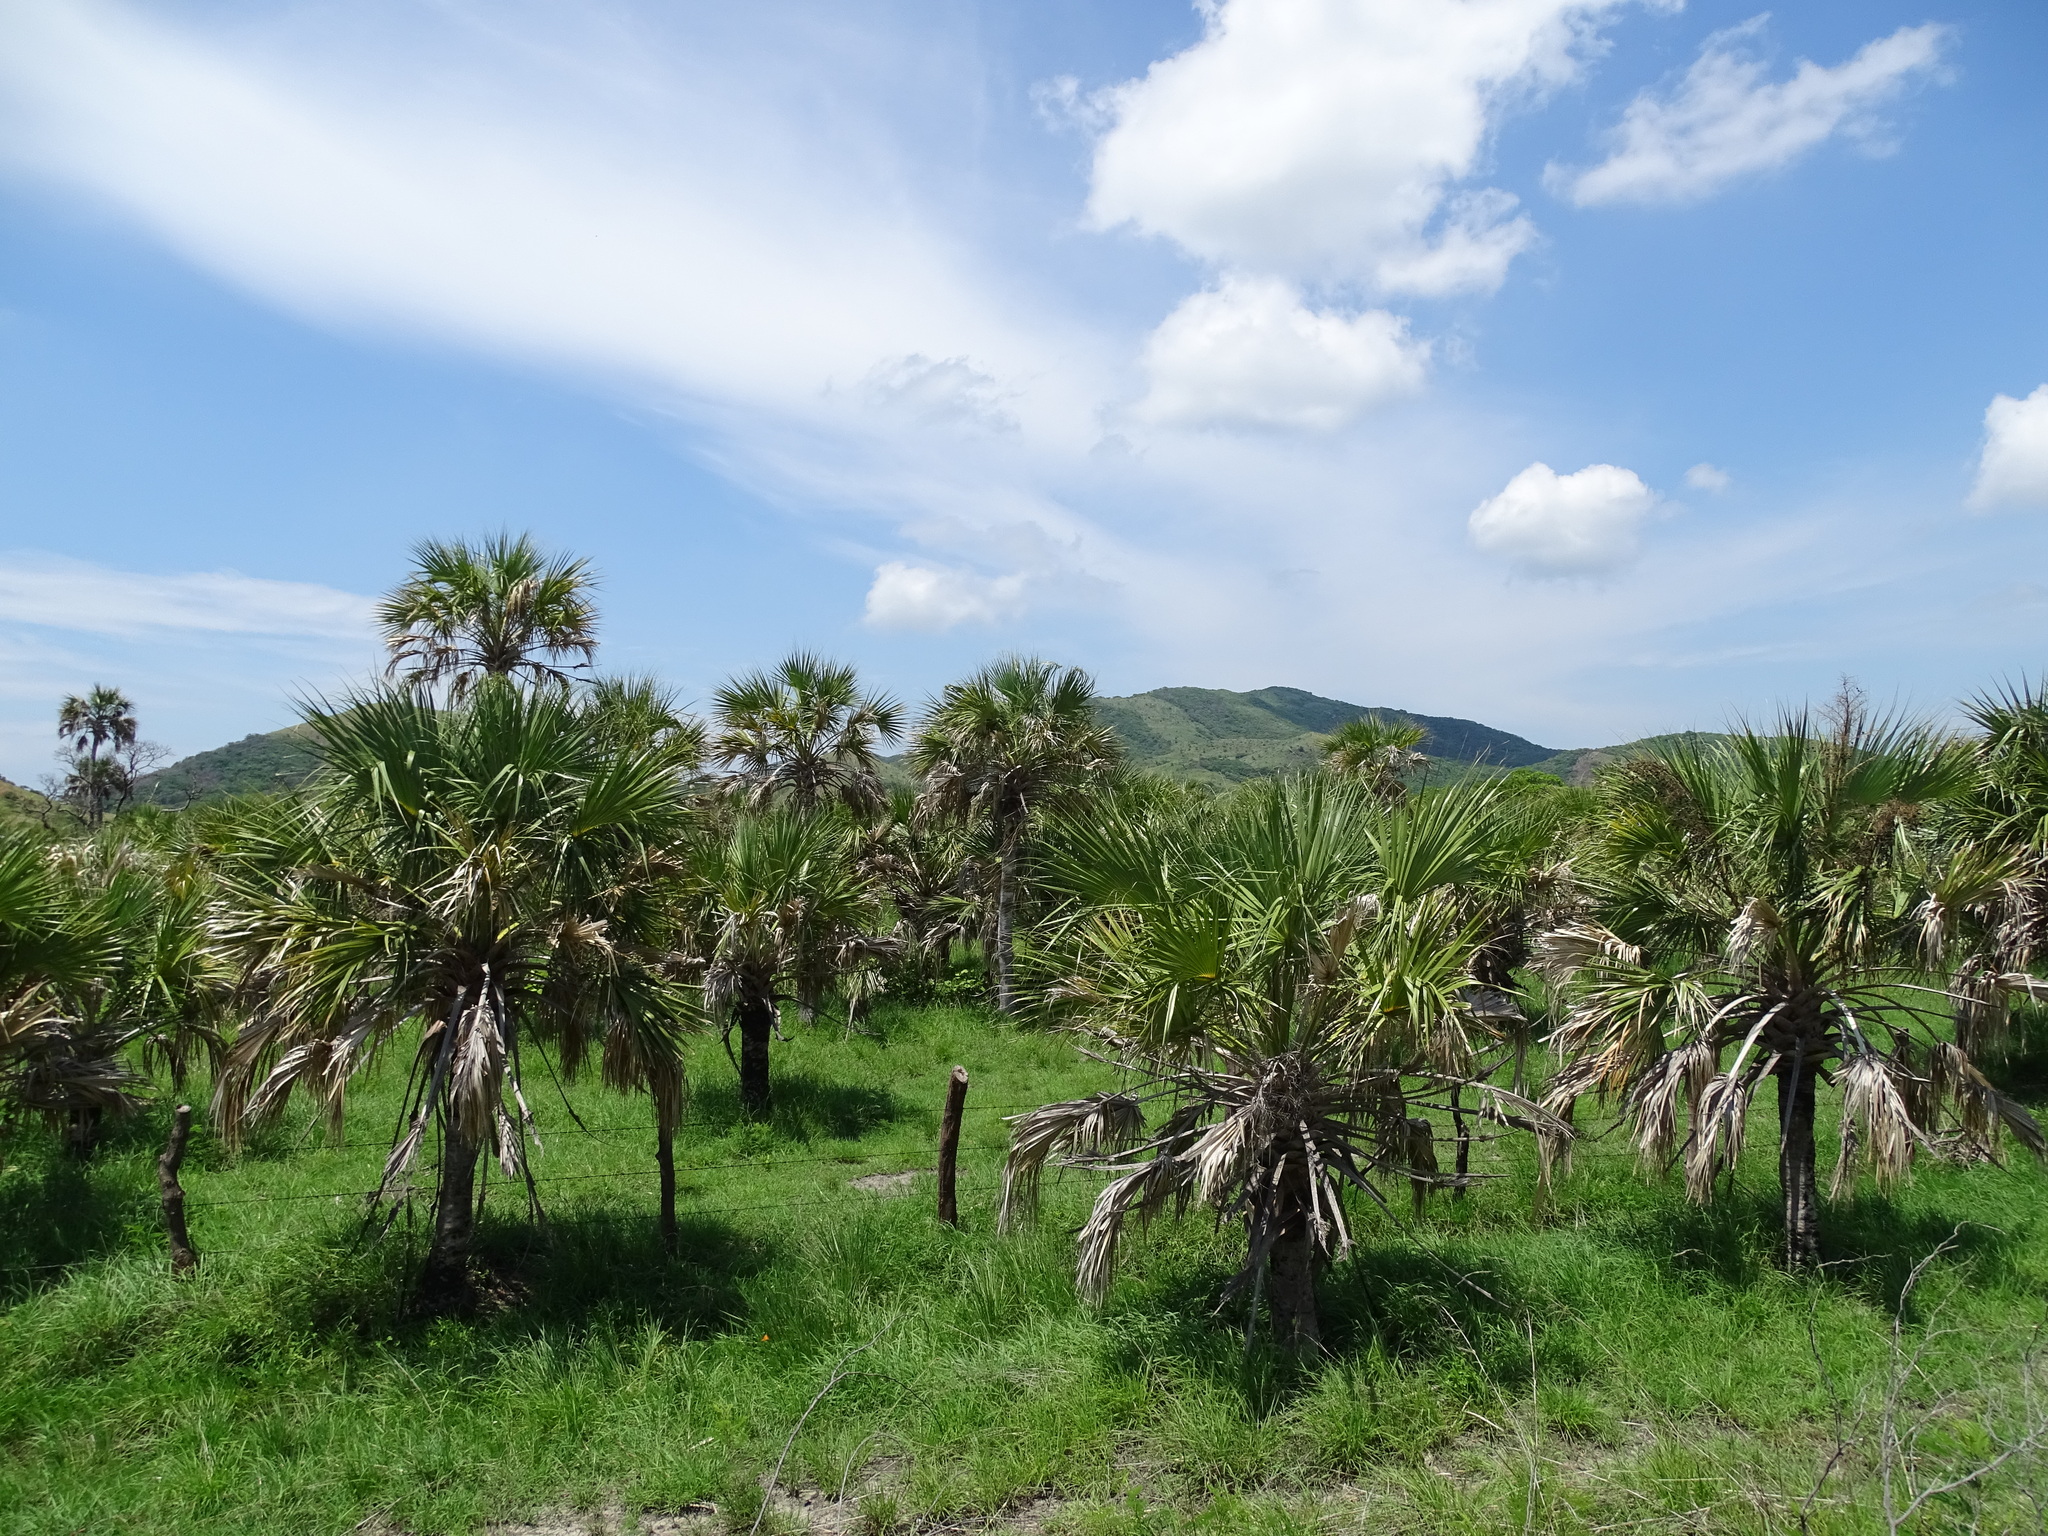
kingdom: Plantae
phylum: Tracheophyta
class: Liliopsida
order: Arecales
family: Arecaceae
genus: Sabal
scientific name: Sabal pumos
